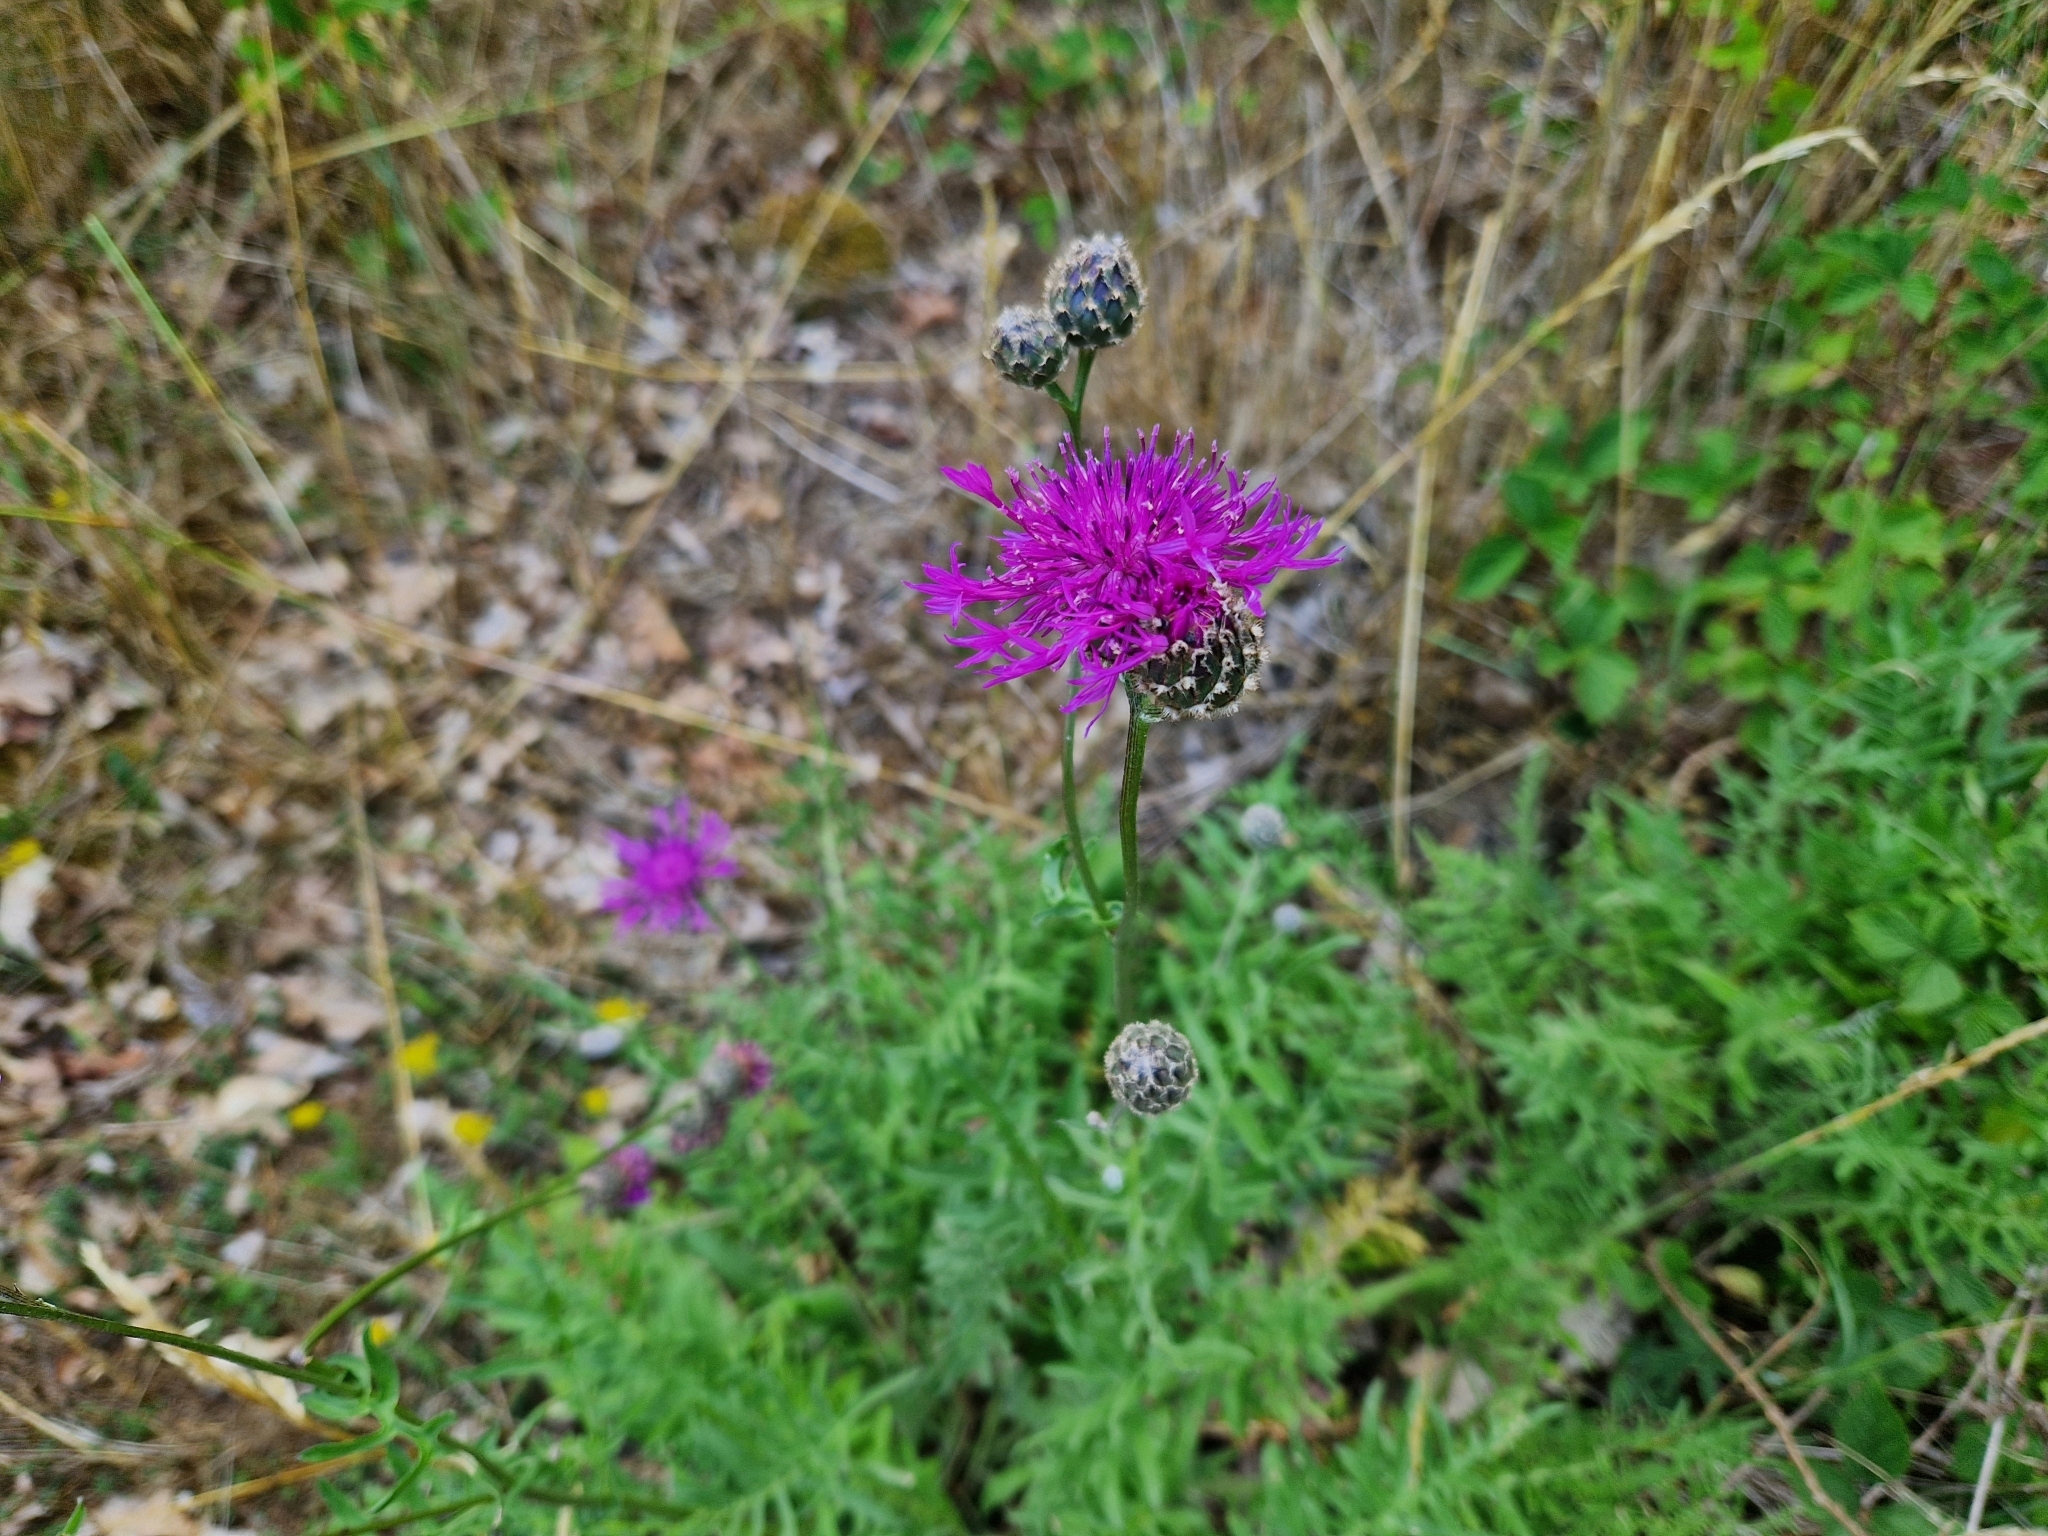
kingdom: Plantae
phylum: Tracheophyta
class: Magnoliopsida
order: Asterales
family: Asteraceae
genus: Centaurea
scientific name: Centaurea scabiosa
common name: Greater knapweed
